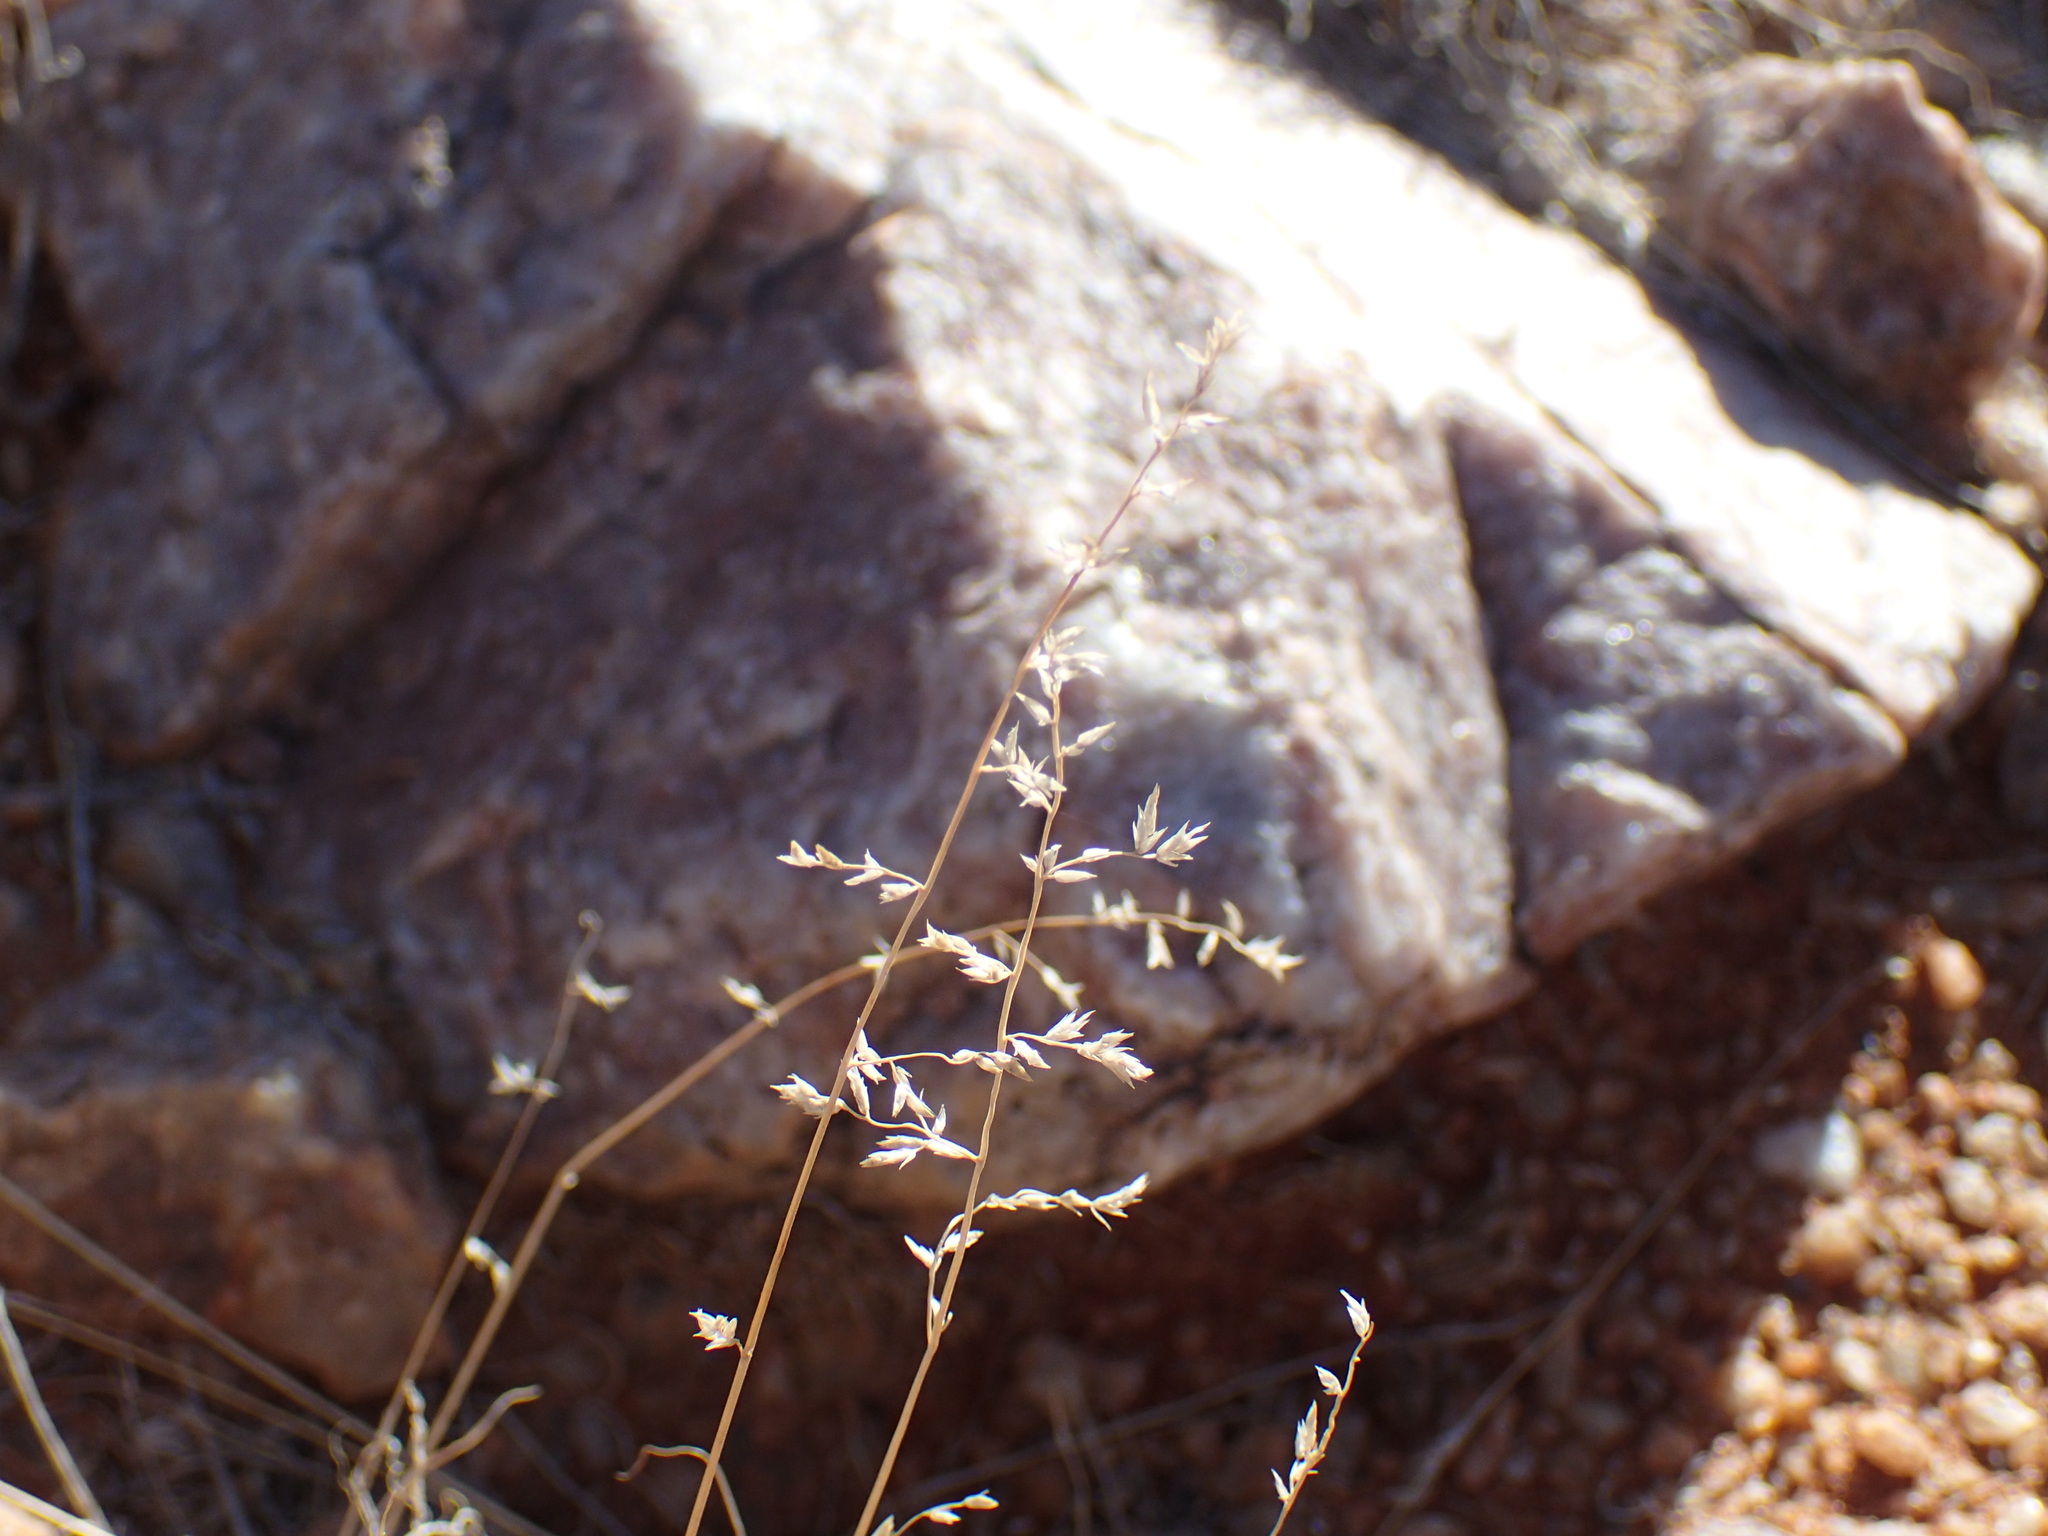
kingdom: Plantae
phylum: Tracheophyta
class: Liliopsida
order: Poales
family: Poaceae
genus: Enneapogon
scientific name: Enneapogon scaber
